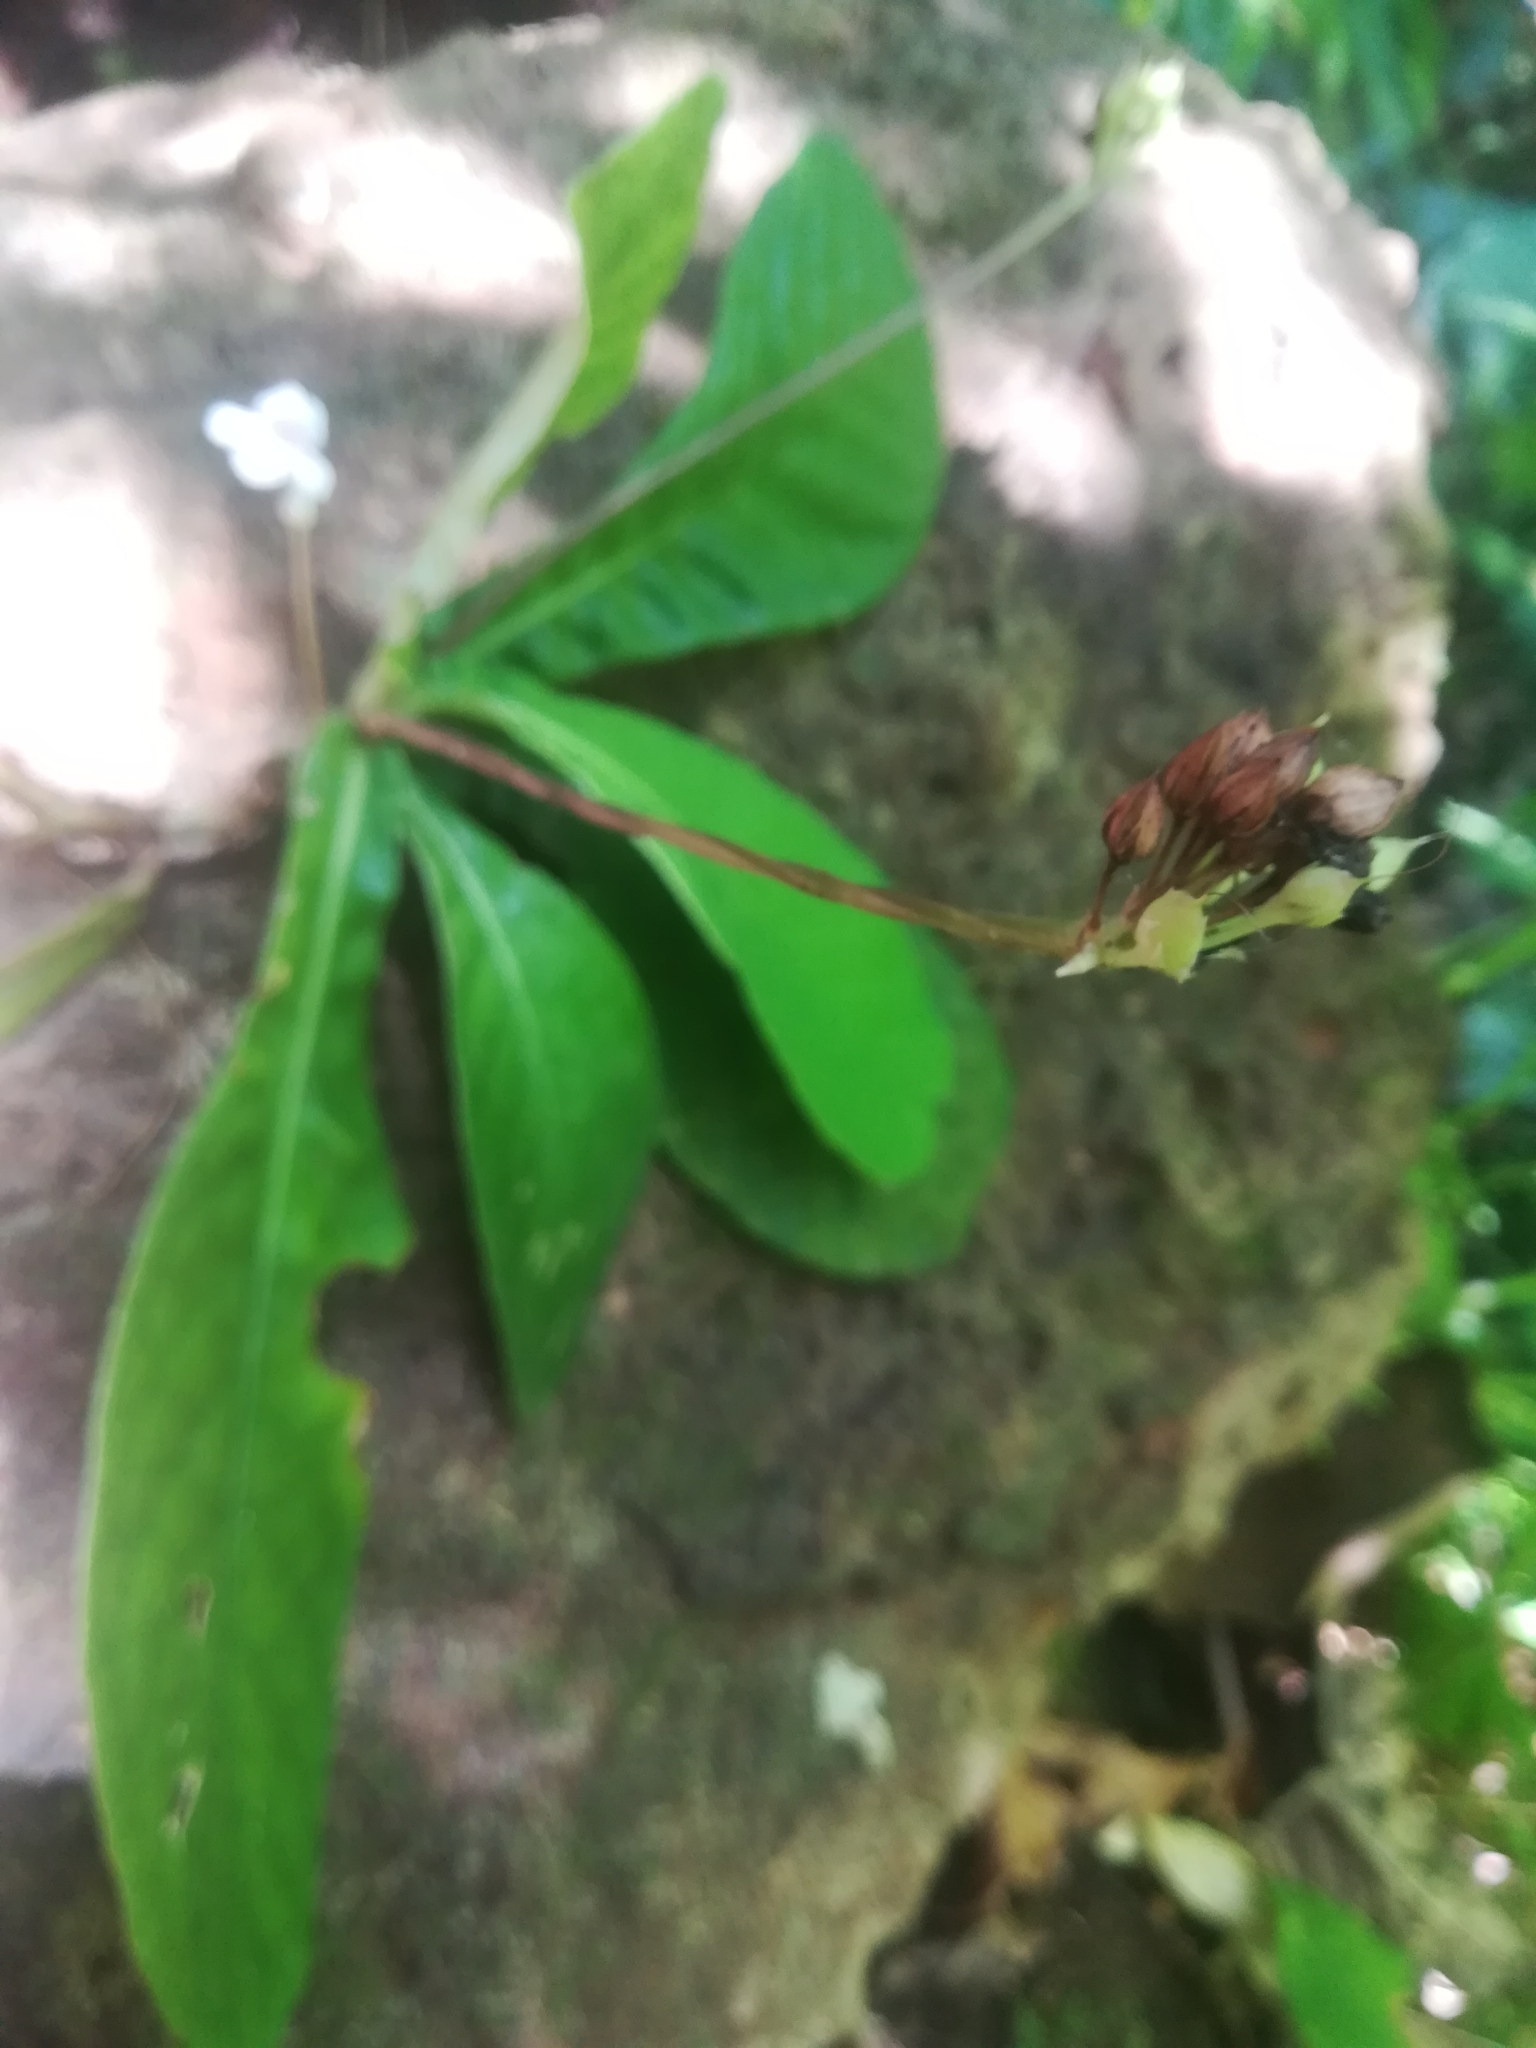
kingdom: Plantae
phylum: Tracheophyta
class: Magnoliopsida
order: Lamiales
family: Plantaginaceae
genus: Tetranema
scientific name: Tetranema roseum
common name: Mexican-violet
